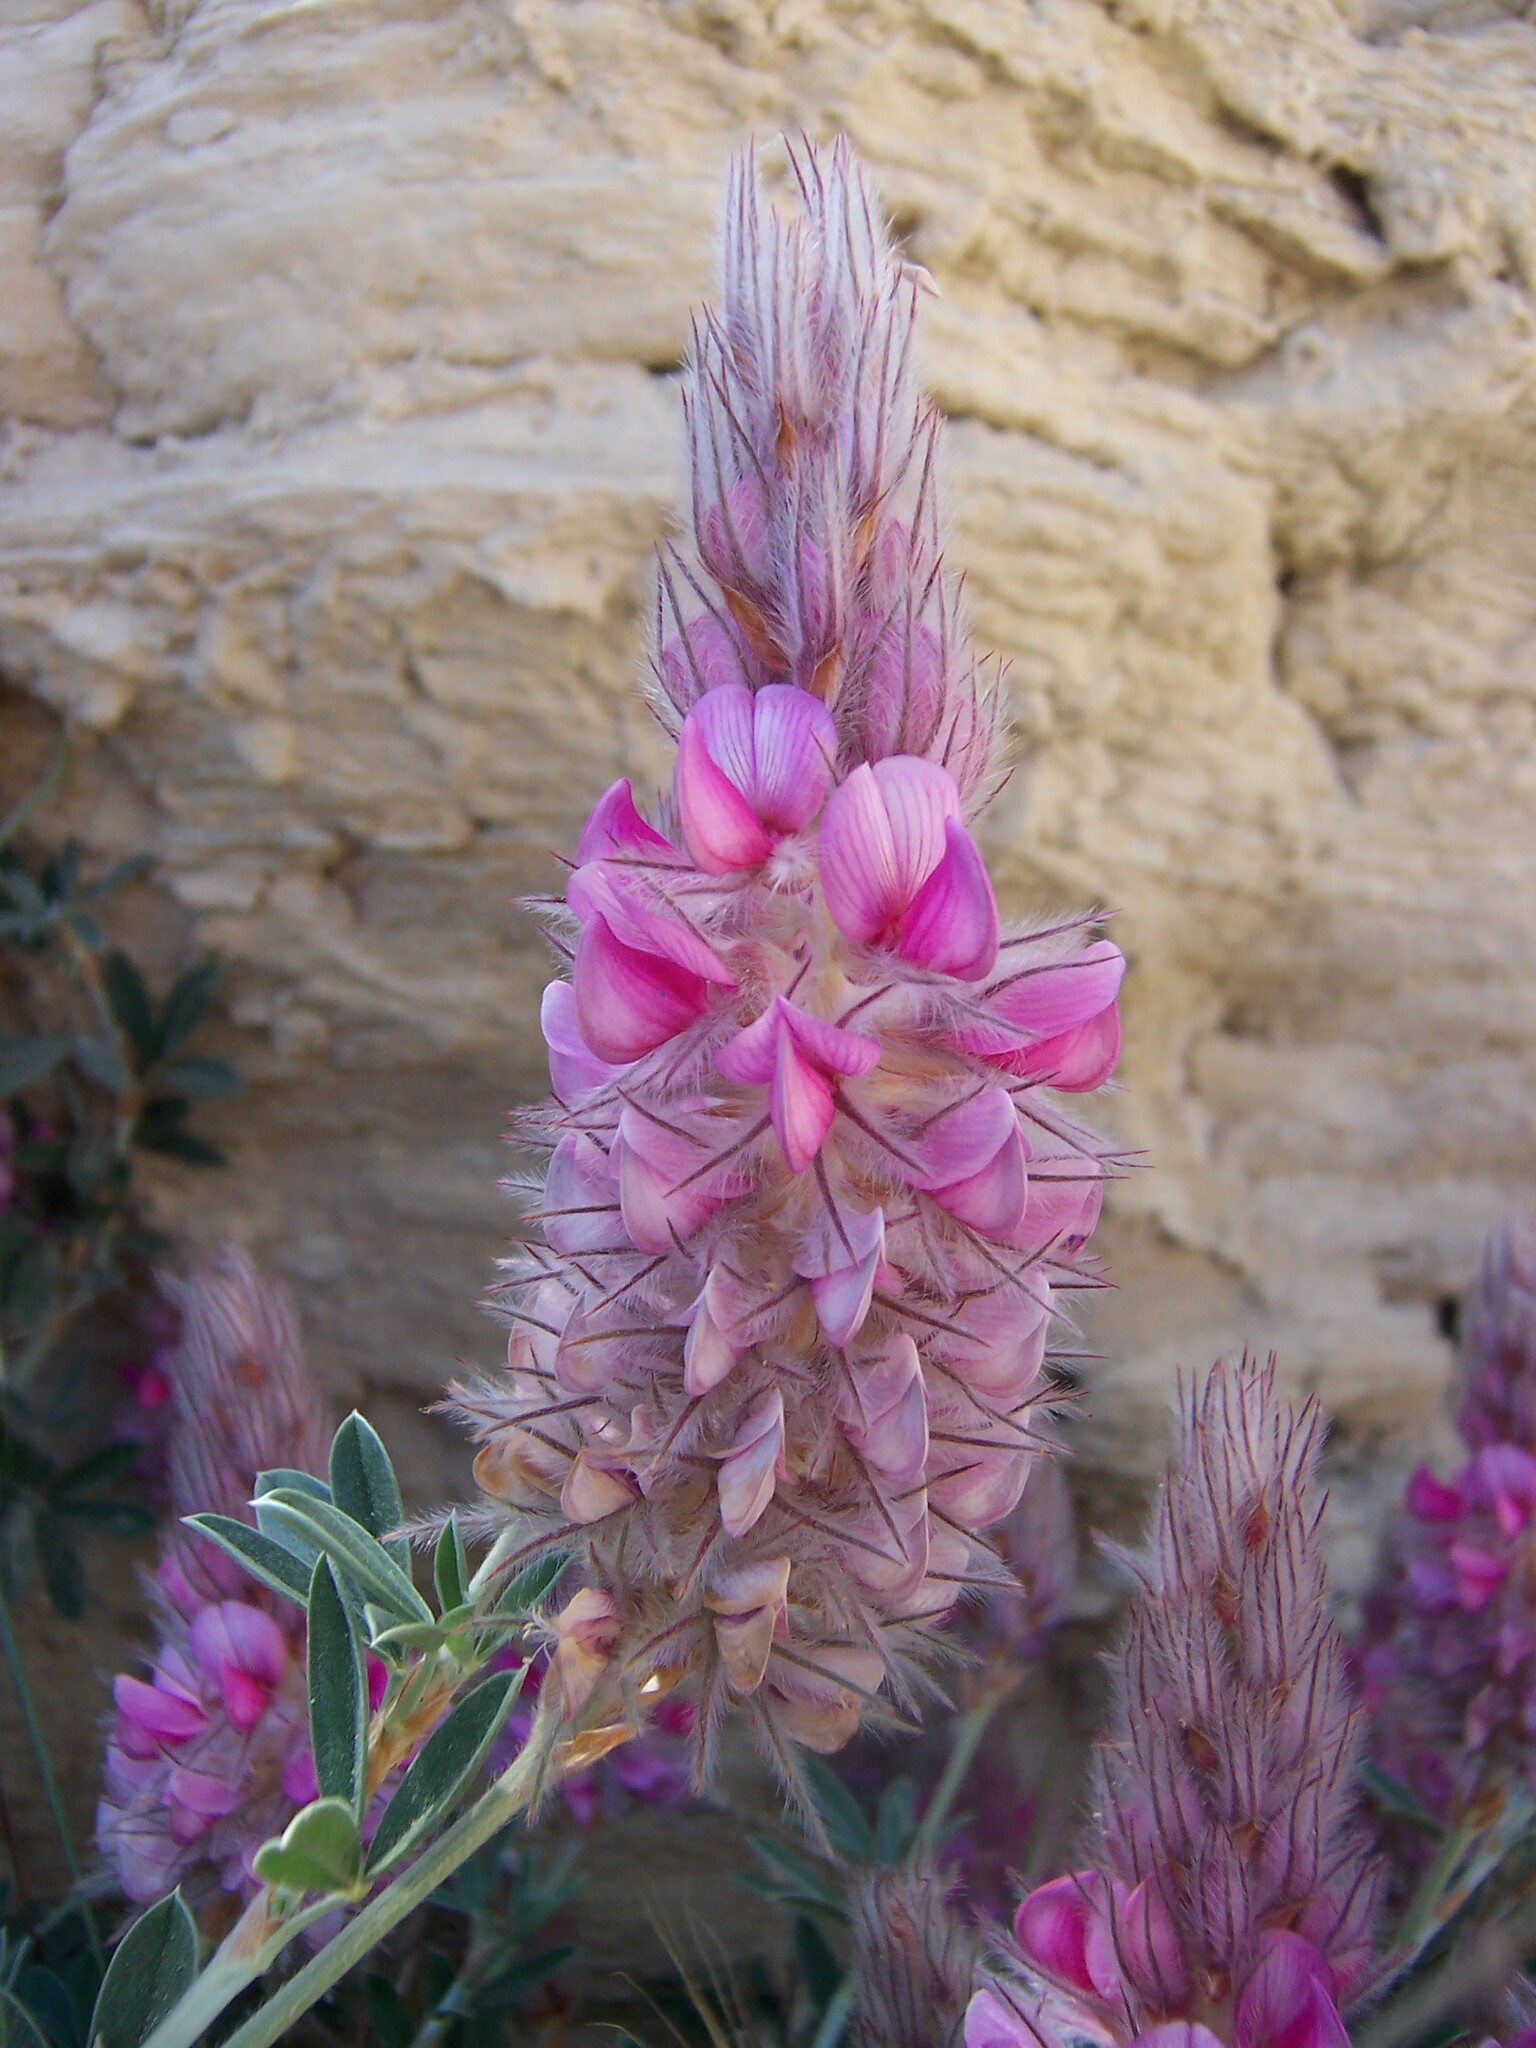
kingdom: Plantae
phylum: Tracheophyta
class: Magnoliopsida
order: Fabales
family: Fabaceae
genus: Ebenus
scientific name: Ebenus cretica
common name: Cretan silver bush
